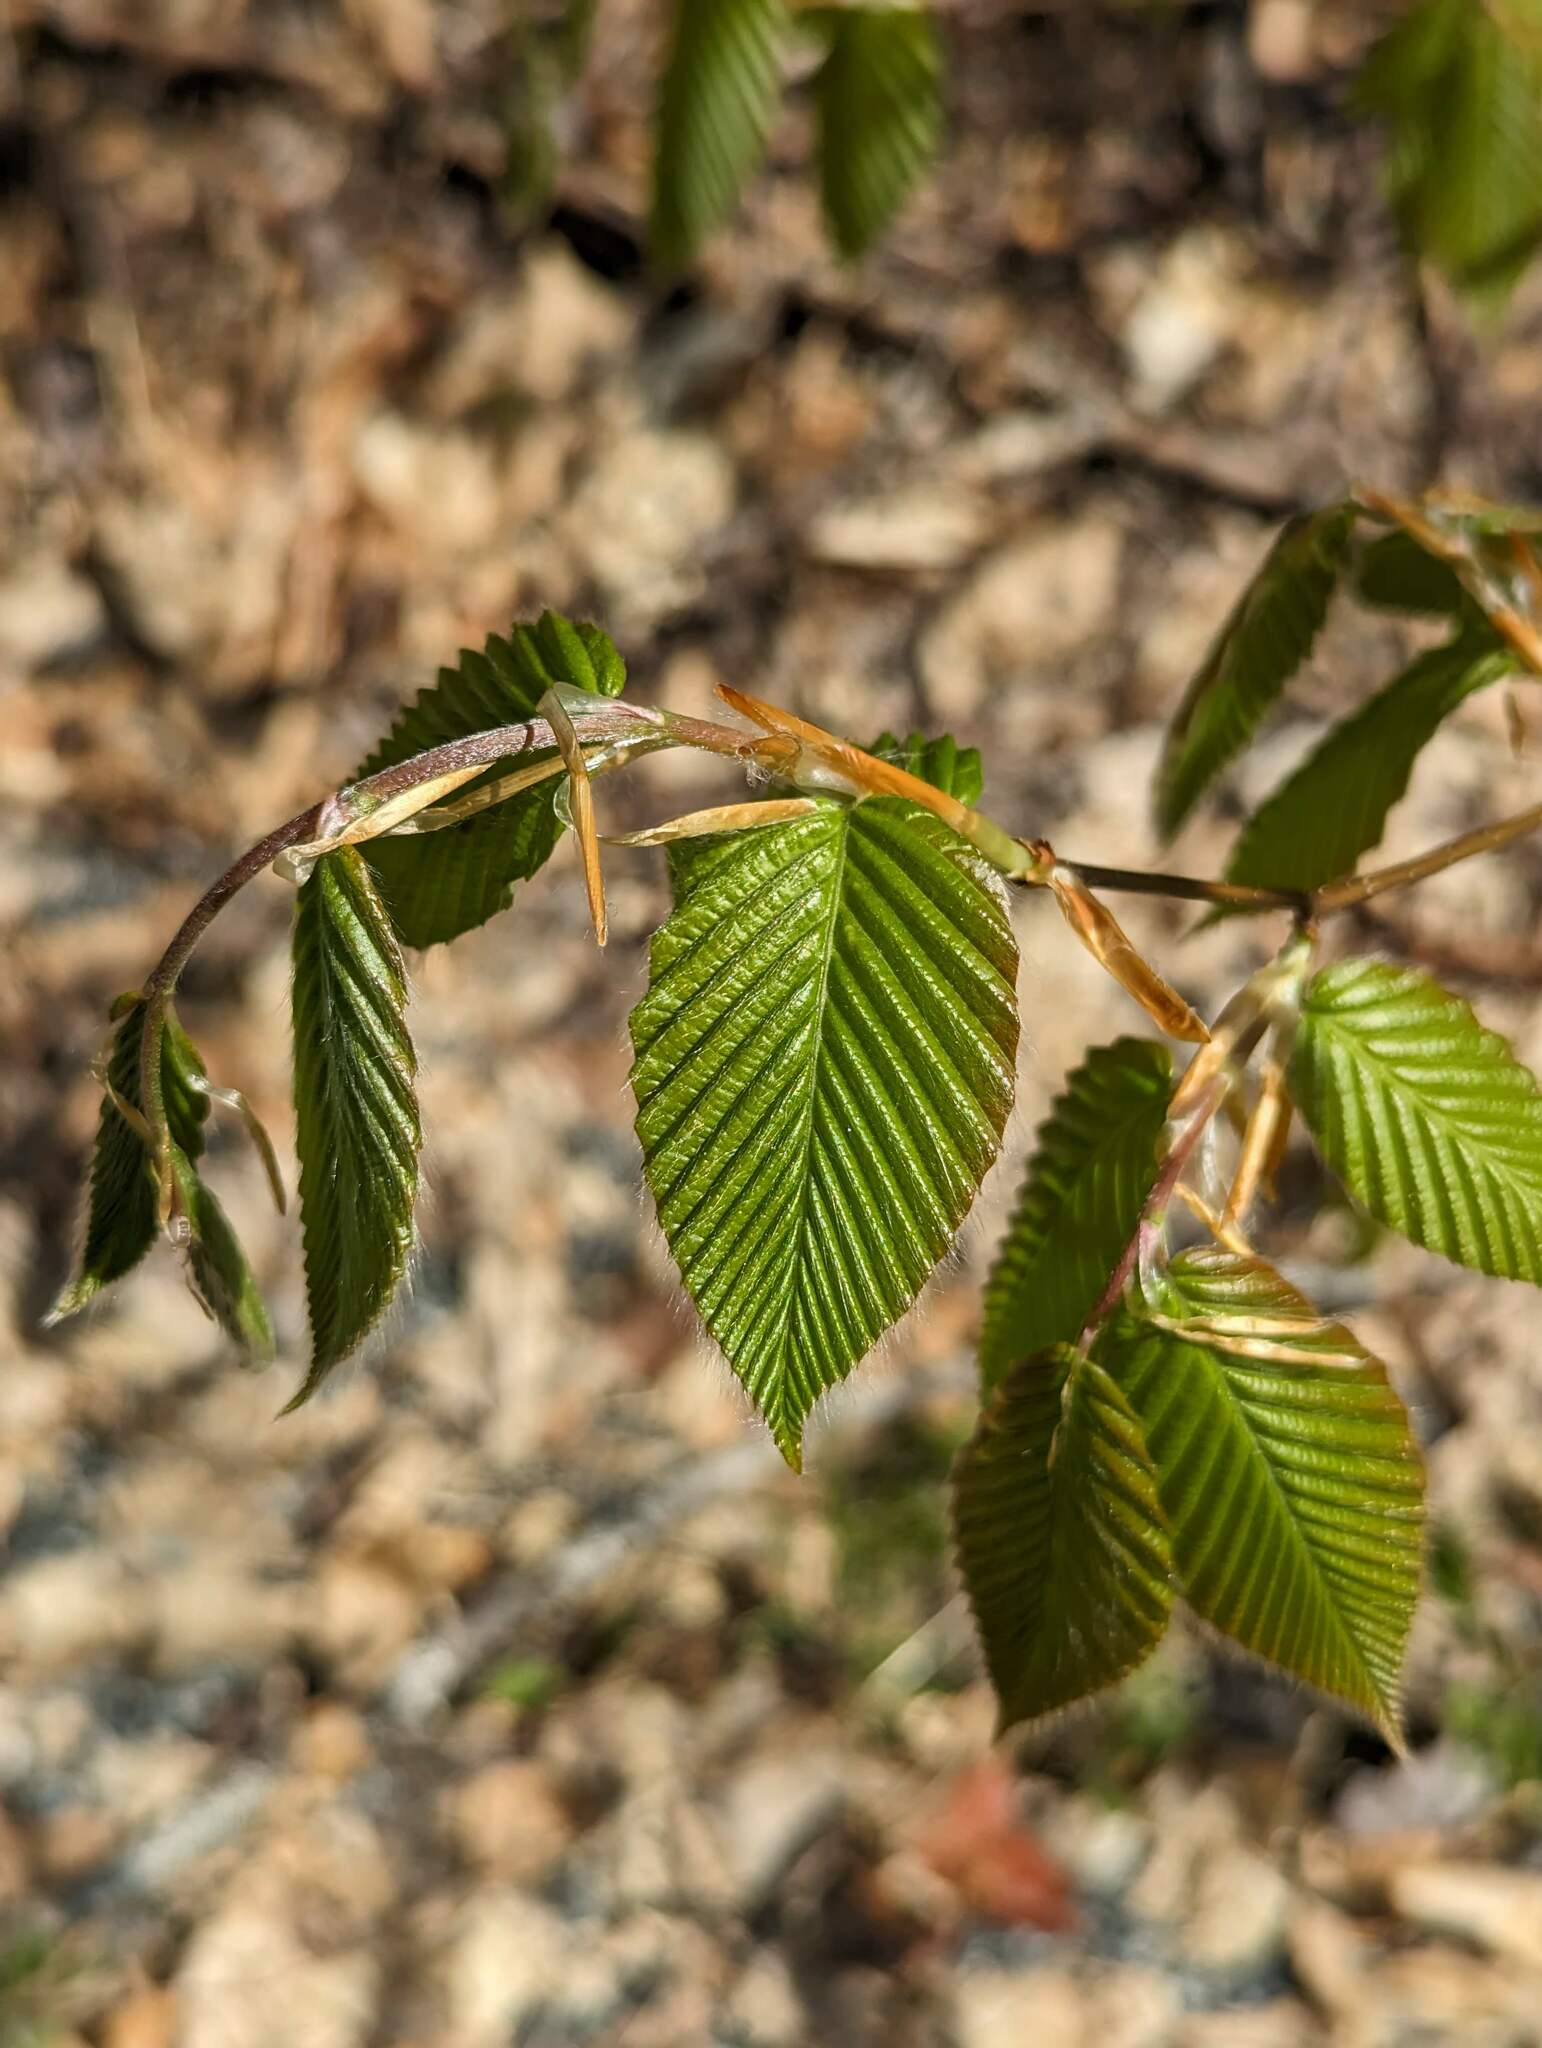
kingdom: Plantae
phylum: Tracheophyta
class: Magnoliopsida
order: Fagales
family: Fagaceae
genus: Fagus
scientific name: Fagus grandifolia
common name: American beech
